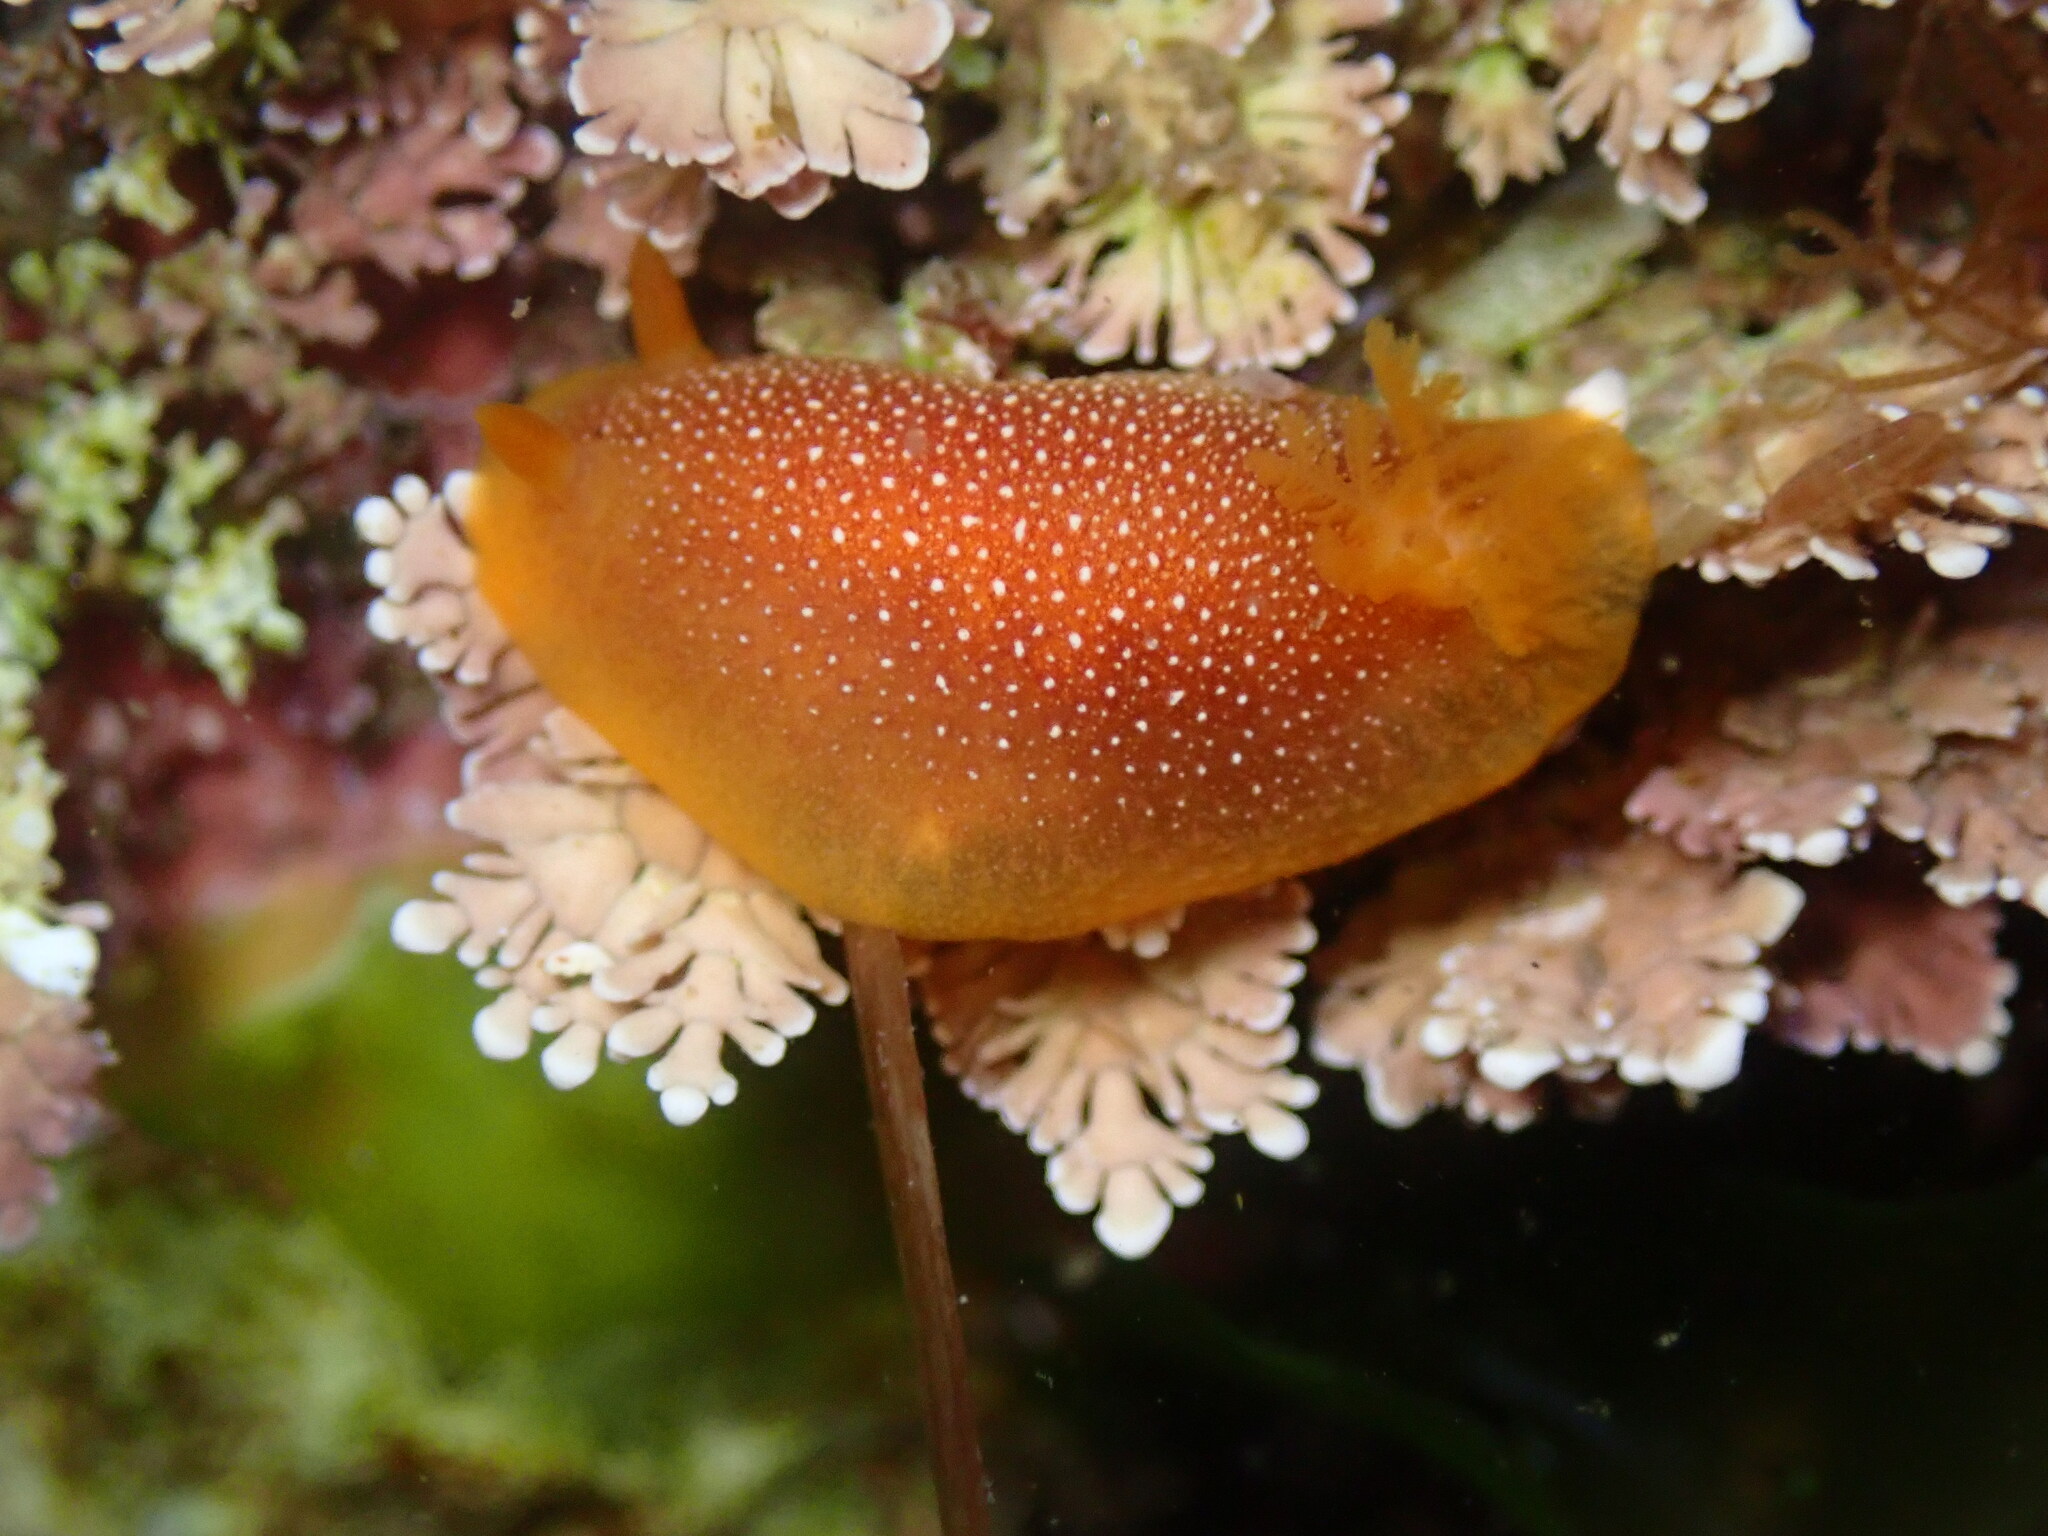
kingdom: Animalia
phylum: Mollusca
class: Gastropoda
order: Nudibranchia
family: Dendrodorididae
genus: Doriopsilla
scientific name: Doriopsilla gemela
